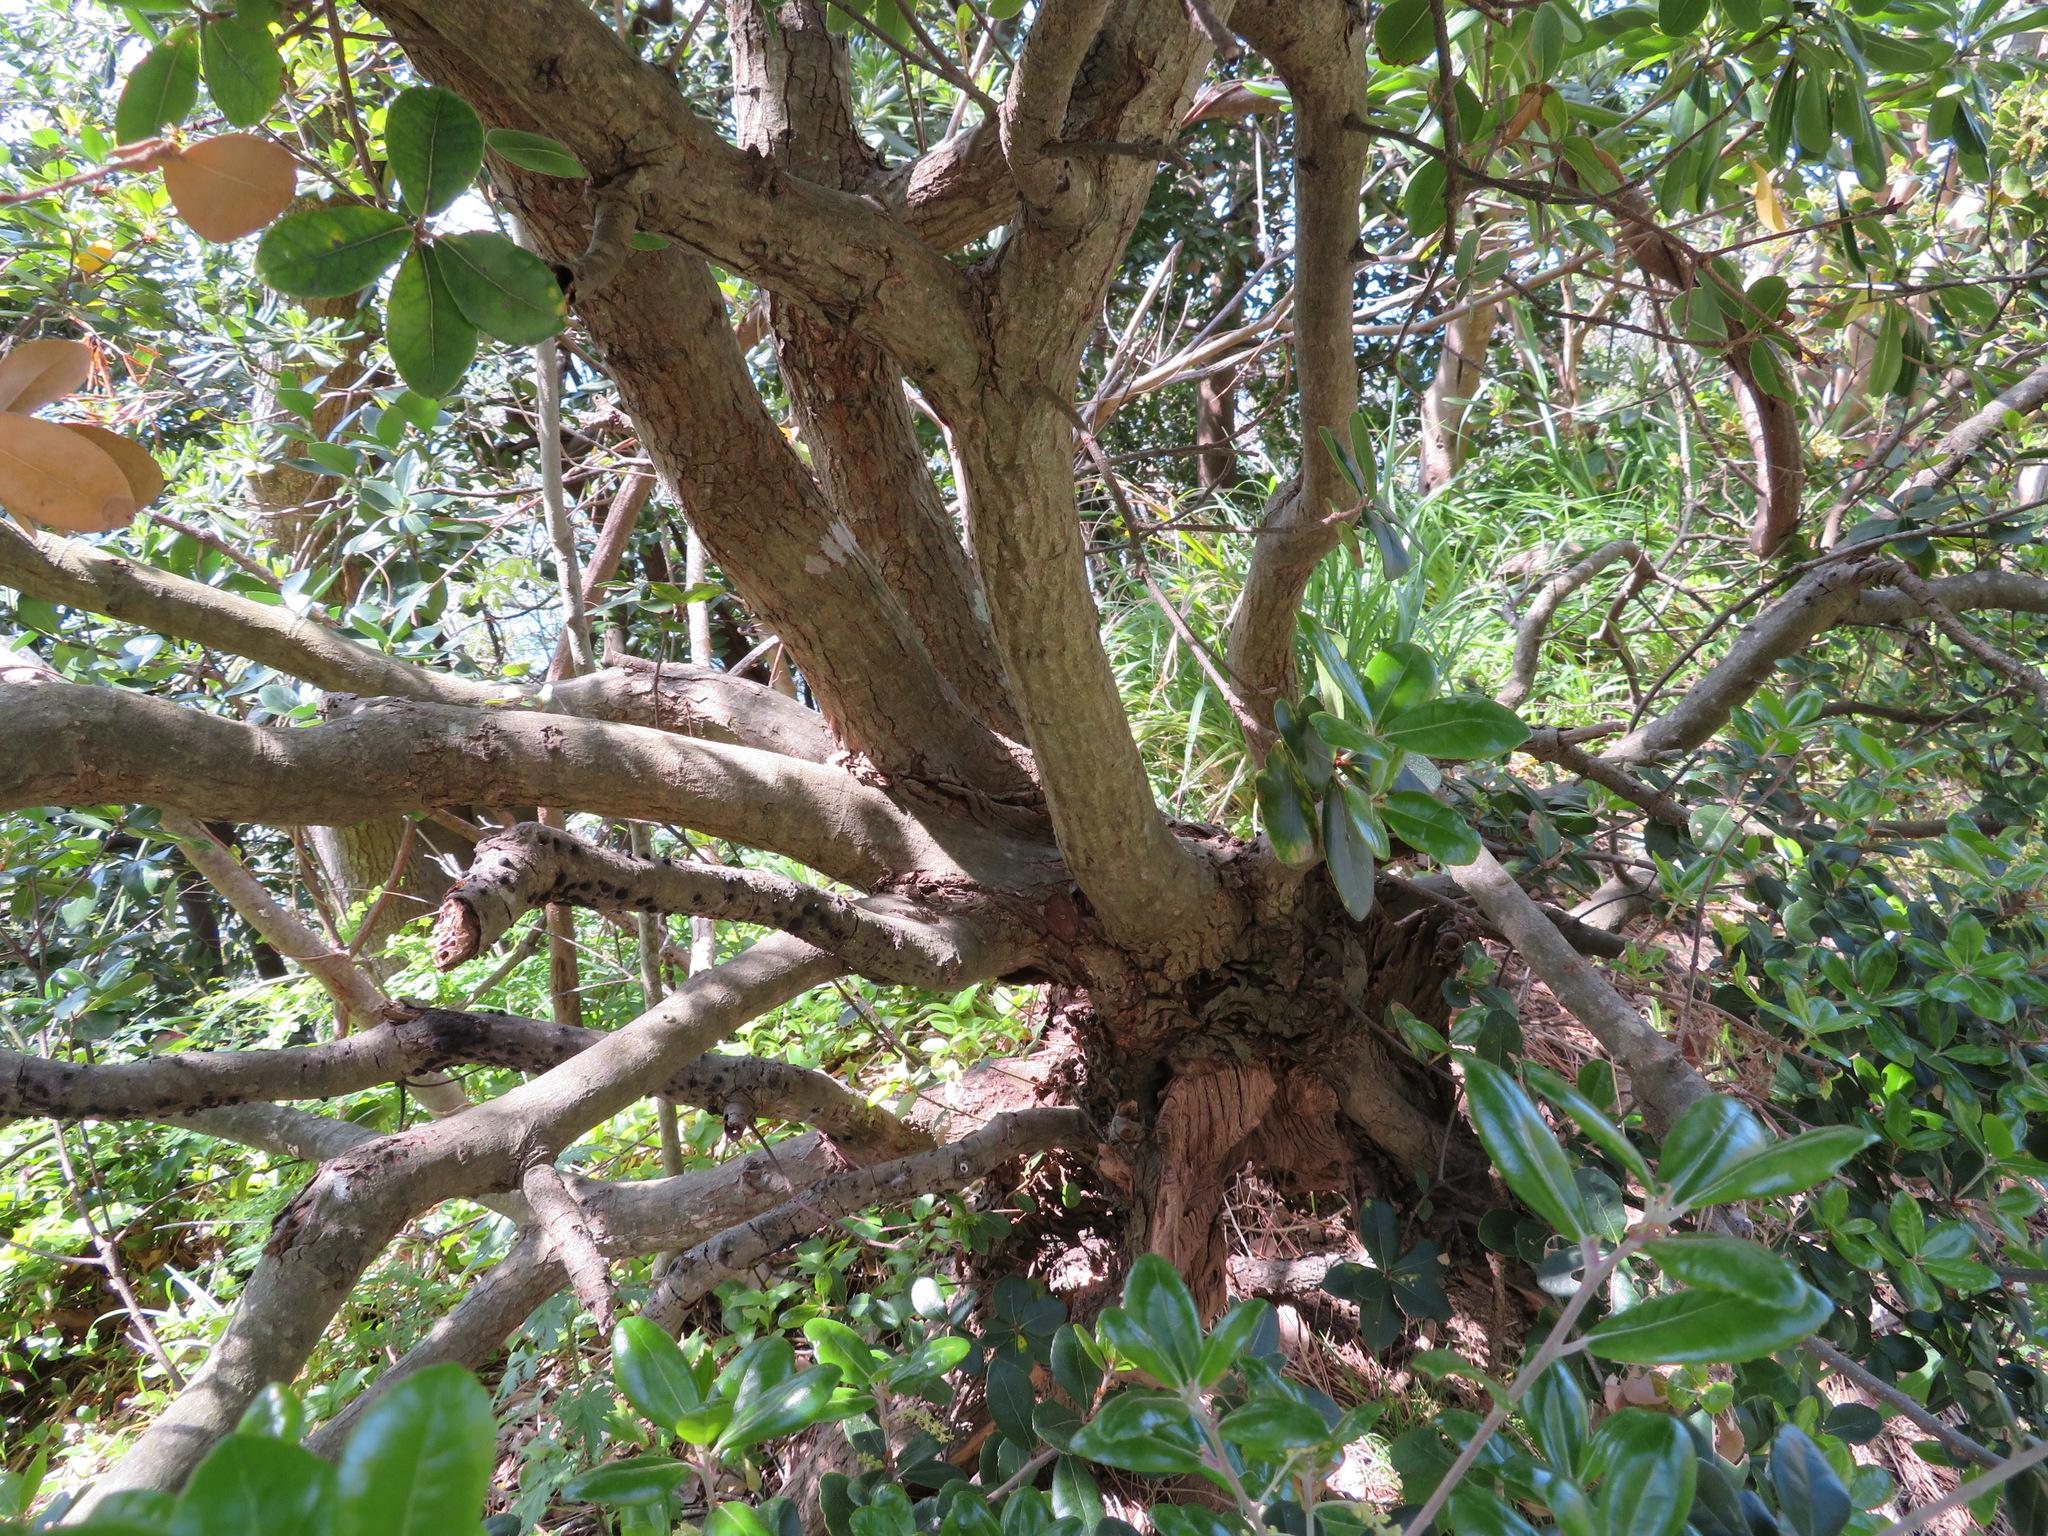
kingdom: Plantae
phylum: Tracheophyta
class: Magnoliopsida
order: Fagales
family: Fagaceae
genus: Quercus
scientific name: Quercus phillyreoides
